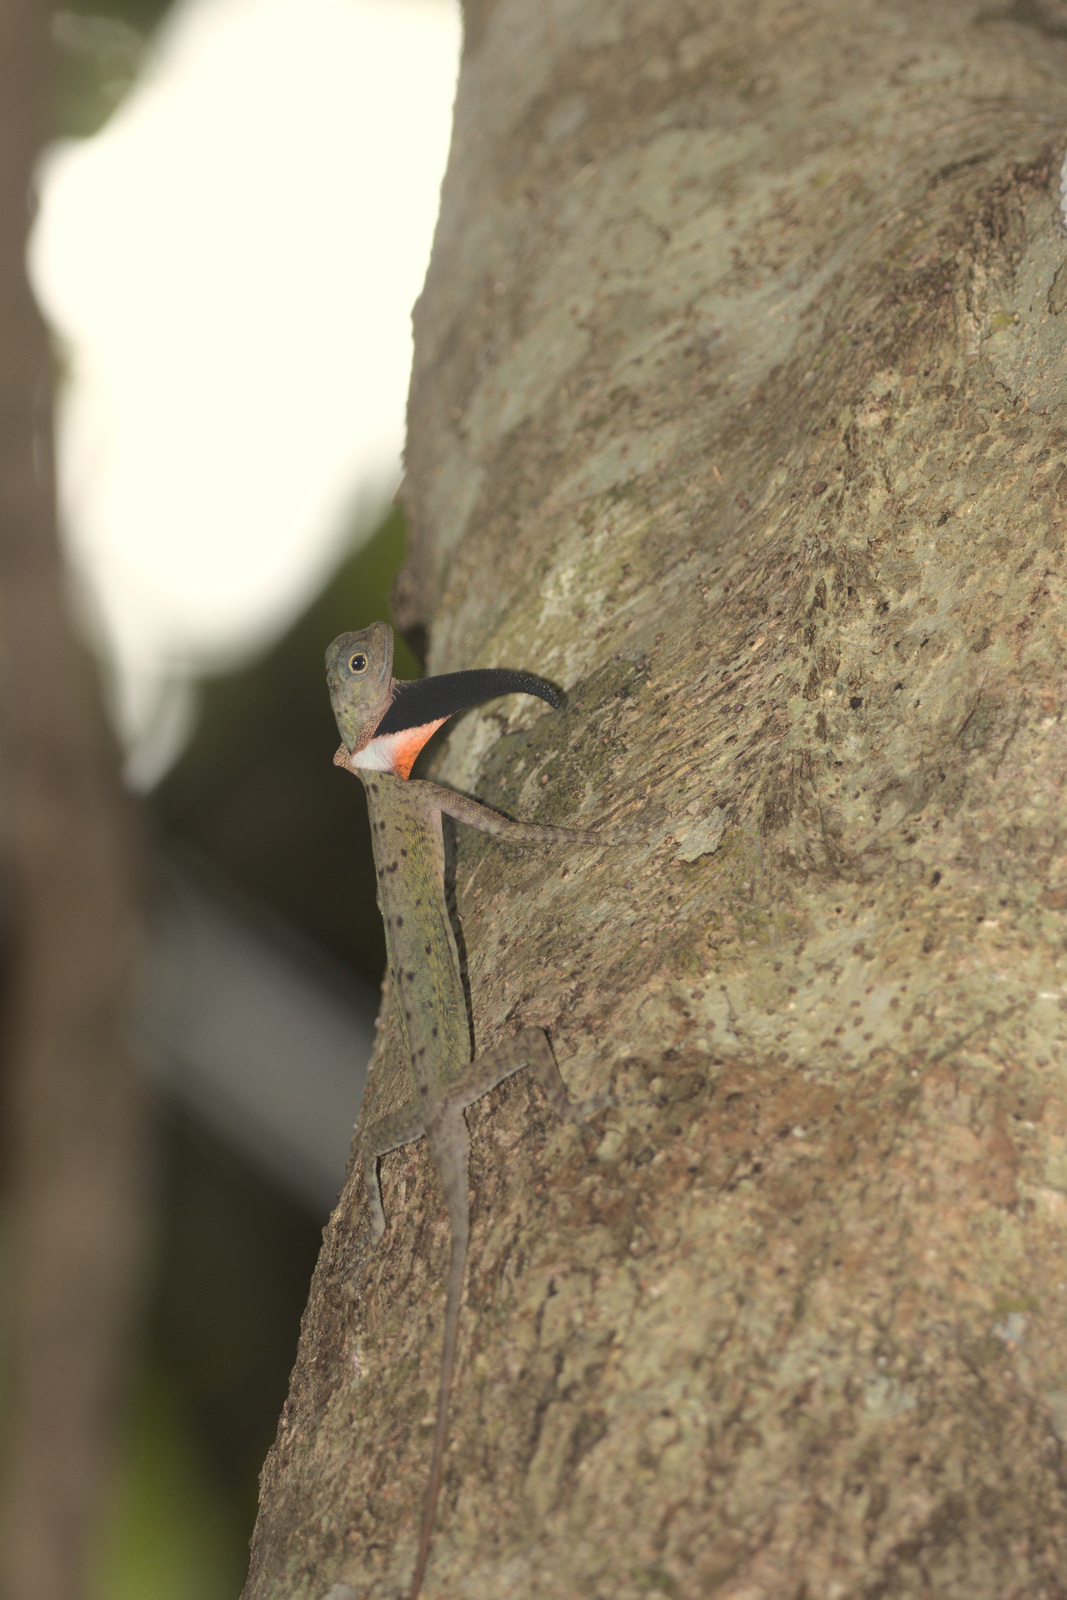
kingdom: Animalia
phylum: Chordata
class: Squamata
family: Agamidae
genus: Draco
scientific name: Draco melanopogon
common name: Black-barbed flying dragon
